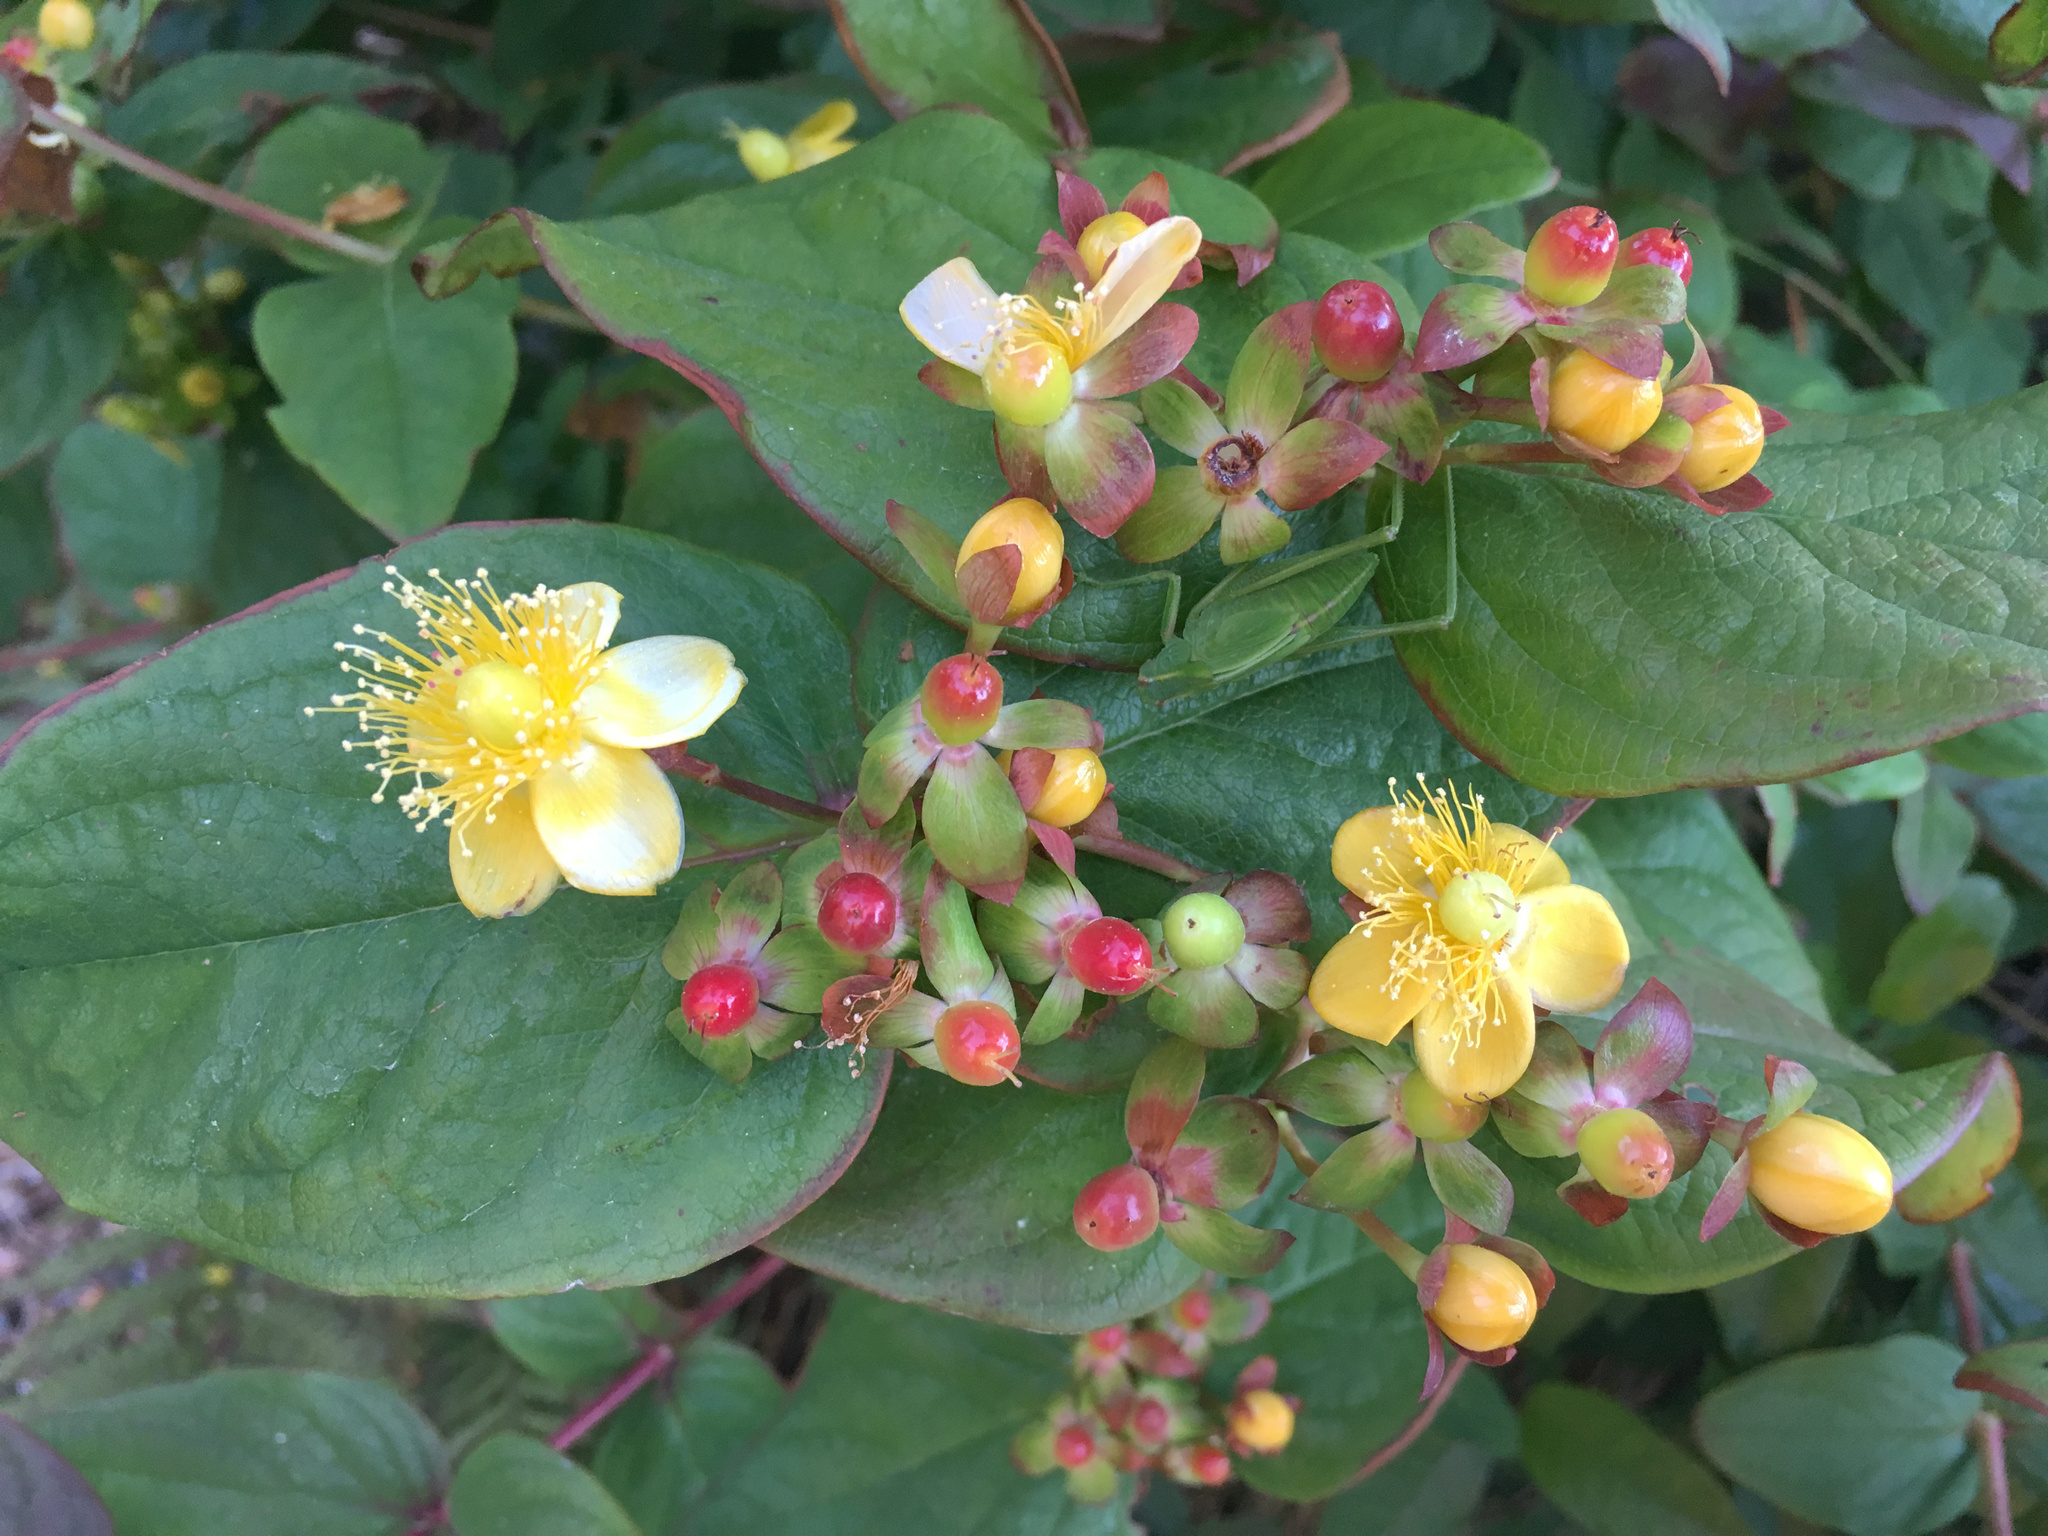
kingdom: Plantae
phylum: Tracheophyta
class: Magnoliopsida
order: Malpighiales
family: Hypericaceae
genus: Hypericum
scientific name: Hypericum androsaemum
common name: Sweet-amber
